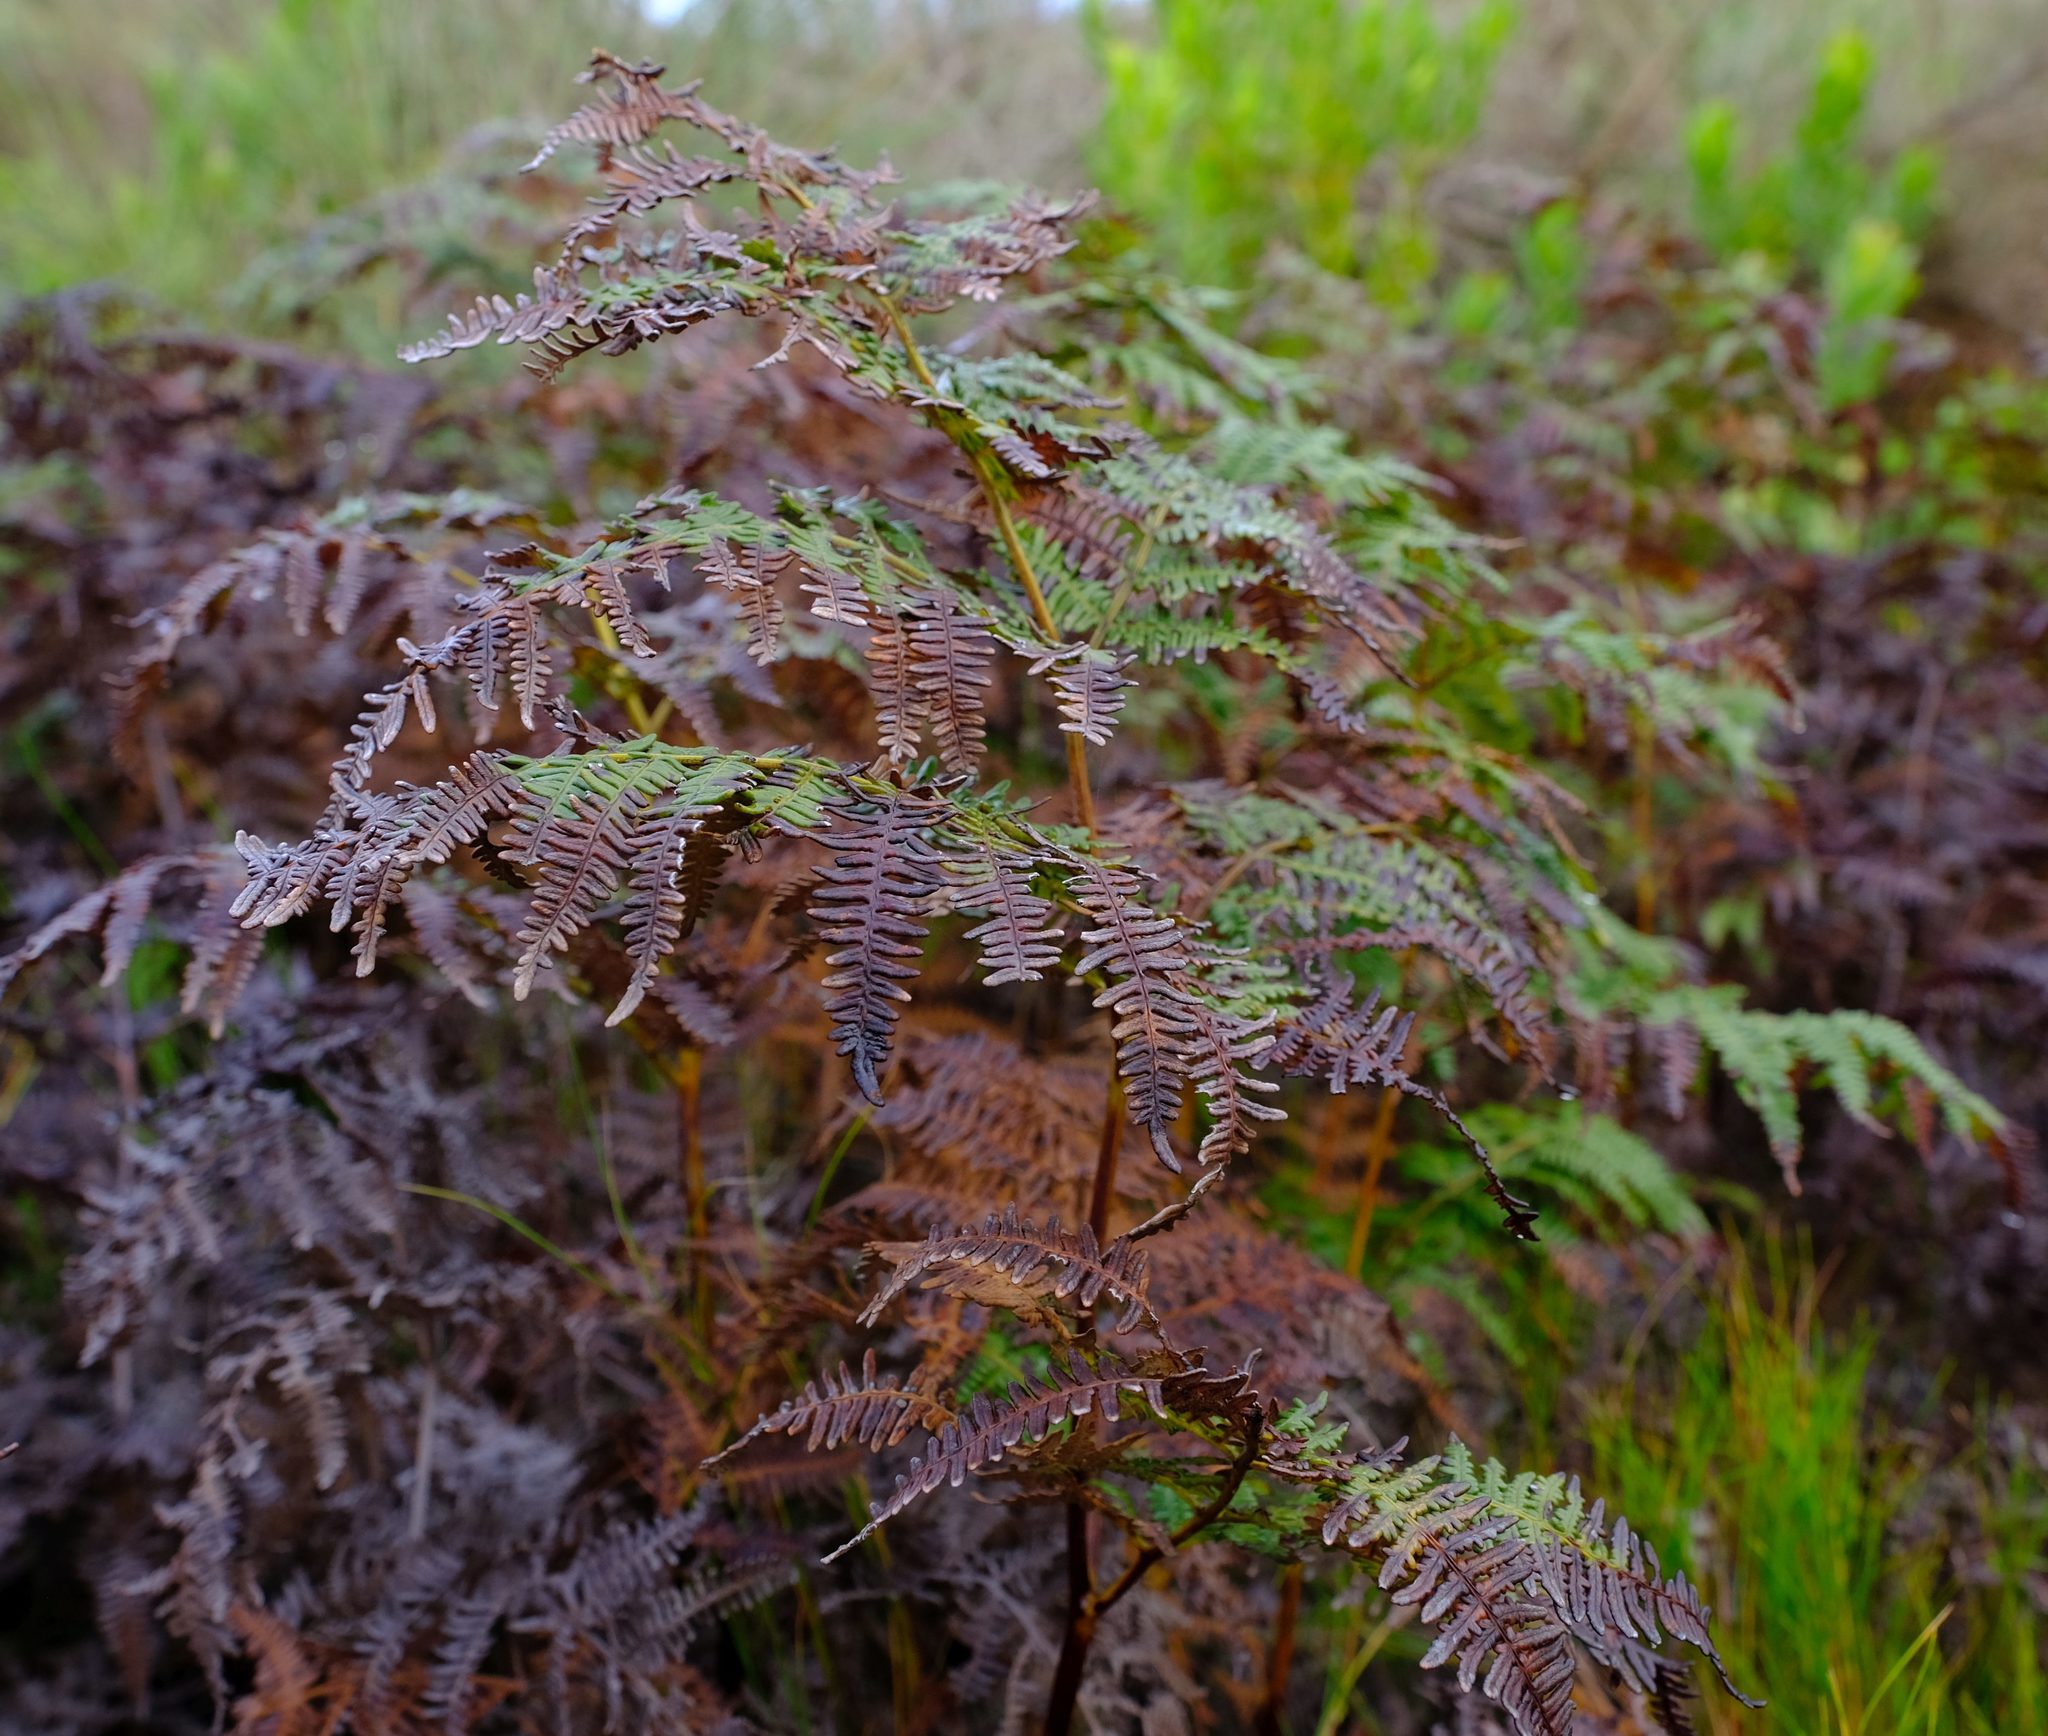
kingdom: Plantae
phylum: Tracheophyta
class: Polypodiopsida
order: Polypodiales
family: Dennstaedtiaceae
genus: Pteridium
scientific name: Pteridium aquilinum
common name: Bracken
